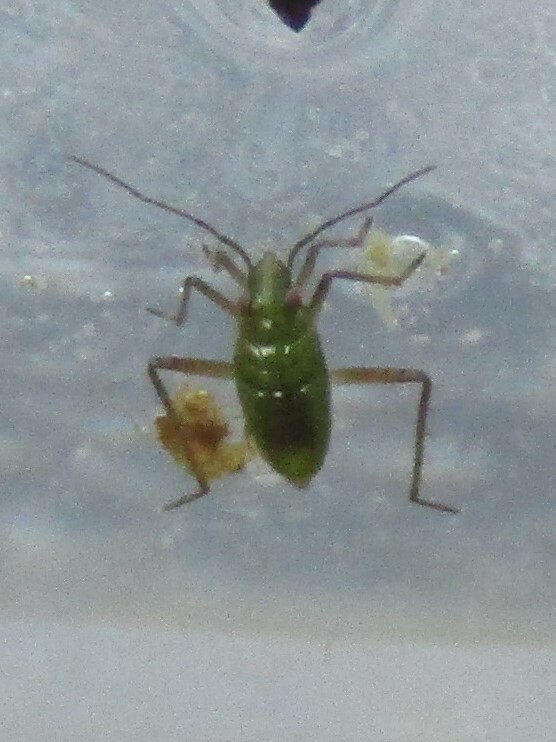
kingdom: Animalia
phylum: Arthropoda
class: Insecta
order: Hemiptera
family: Mesoveliidae
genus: Mesovelia
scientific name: Mesovelia
